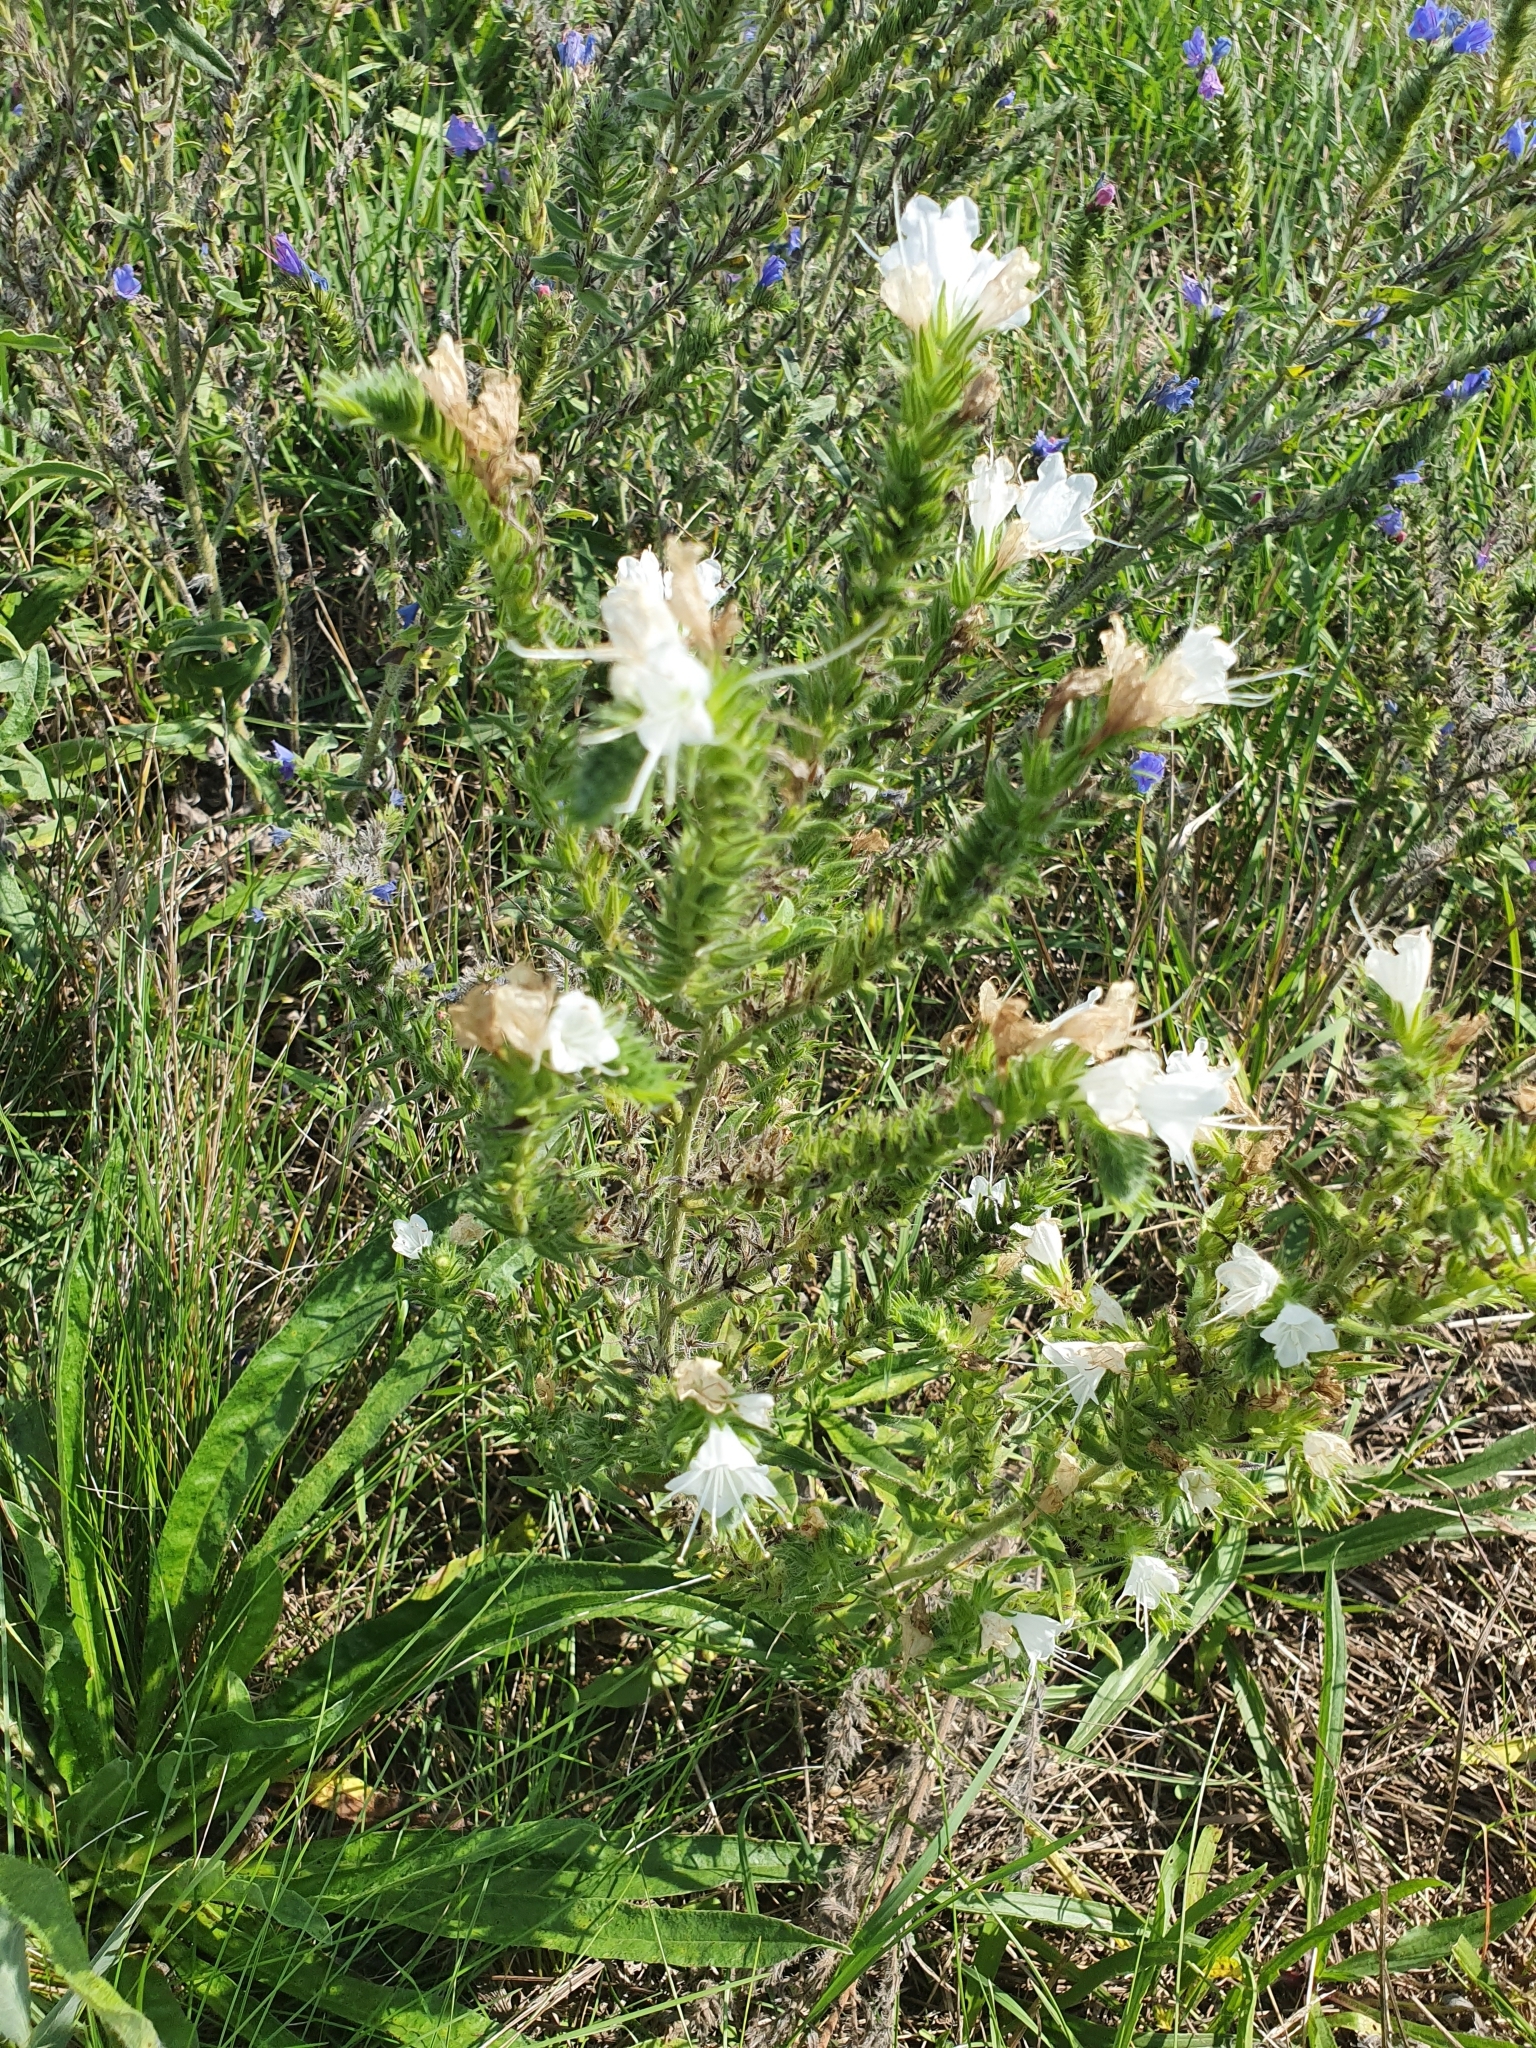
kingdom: Plantae
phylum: Tracheophyta
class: Magnoliopsida
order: Boraginales
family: Boraginaceae
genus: Echium
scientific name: Echium vulgare
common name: Common viper's bugloss
